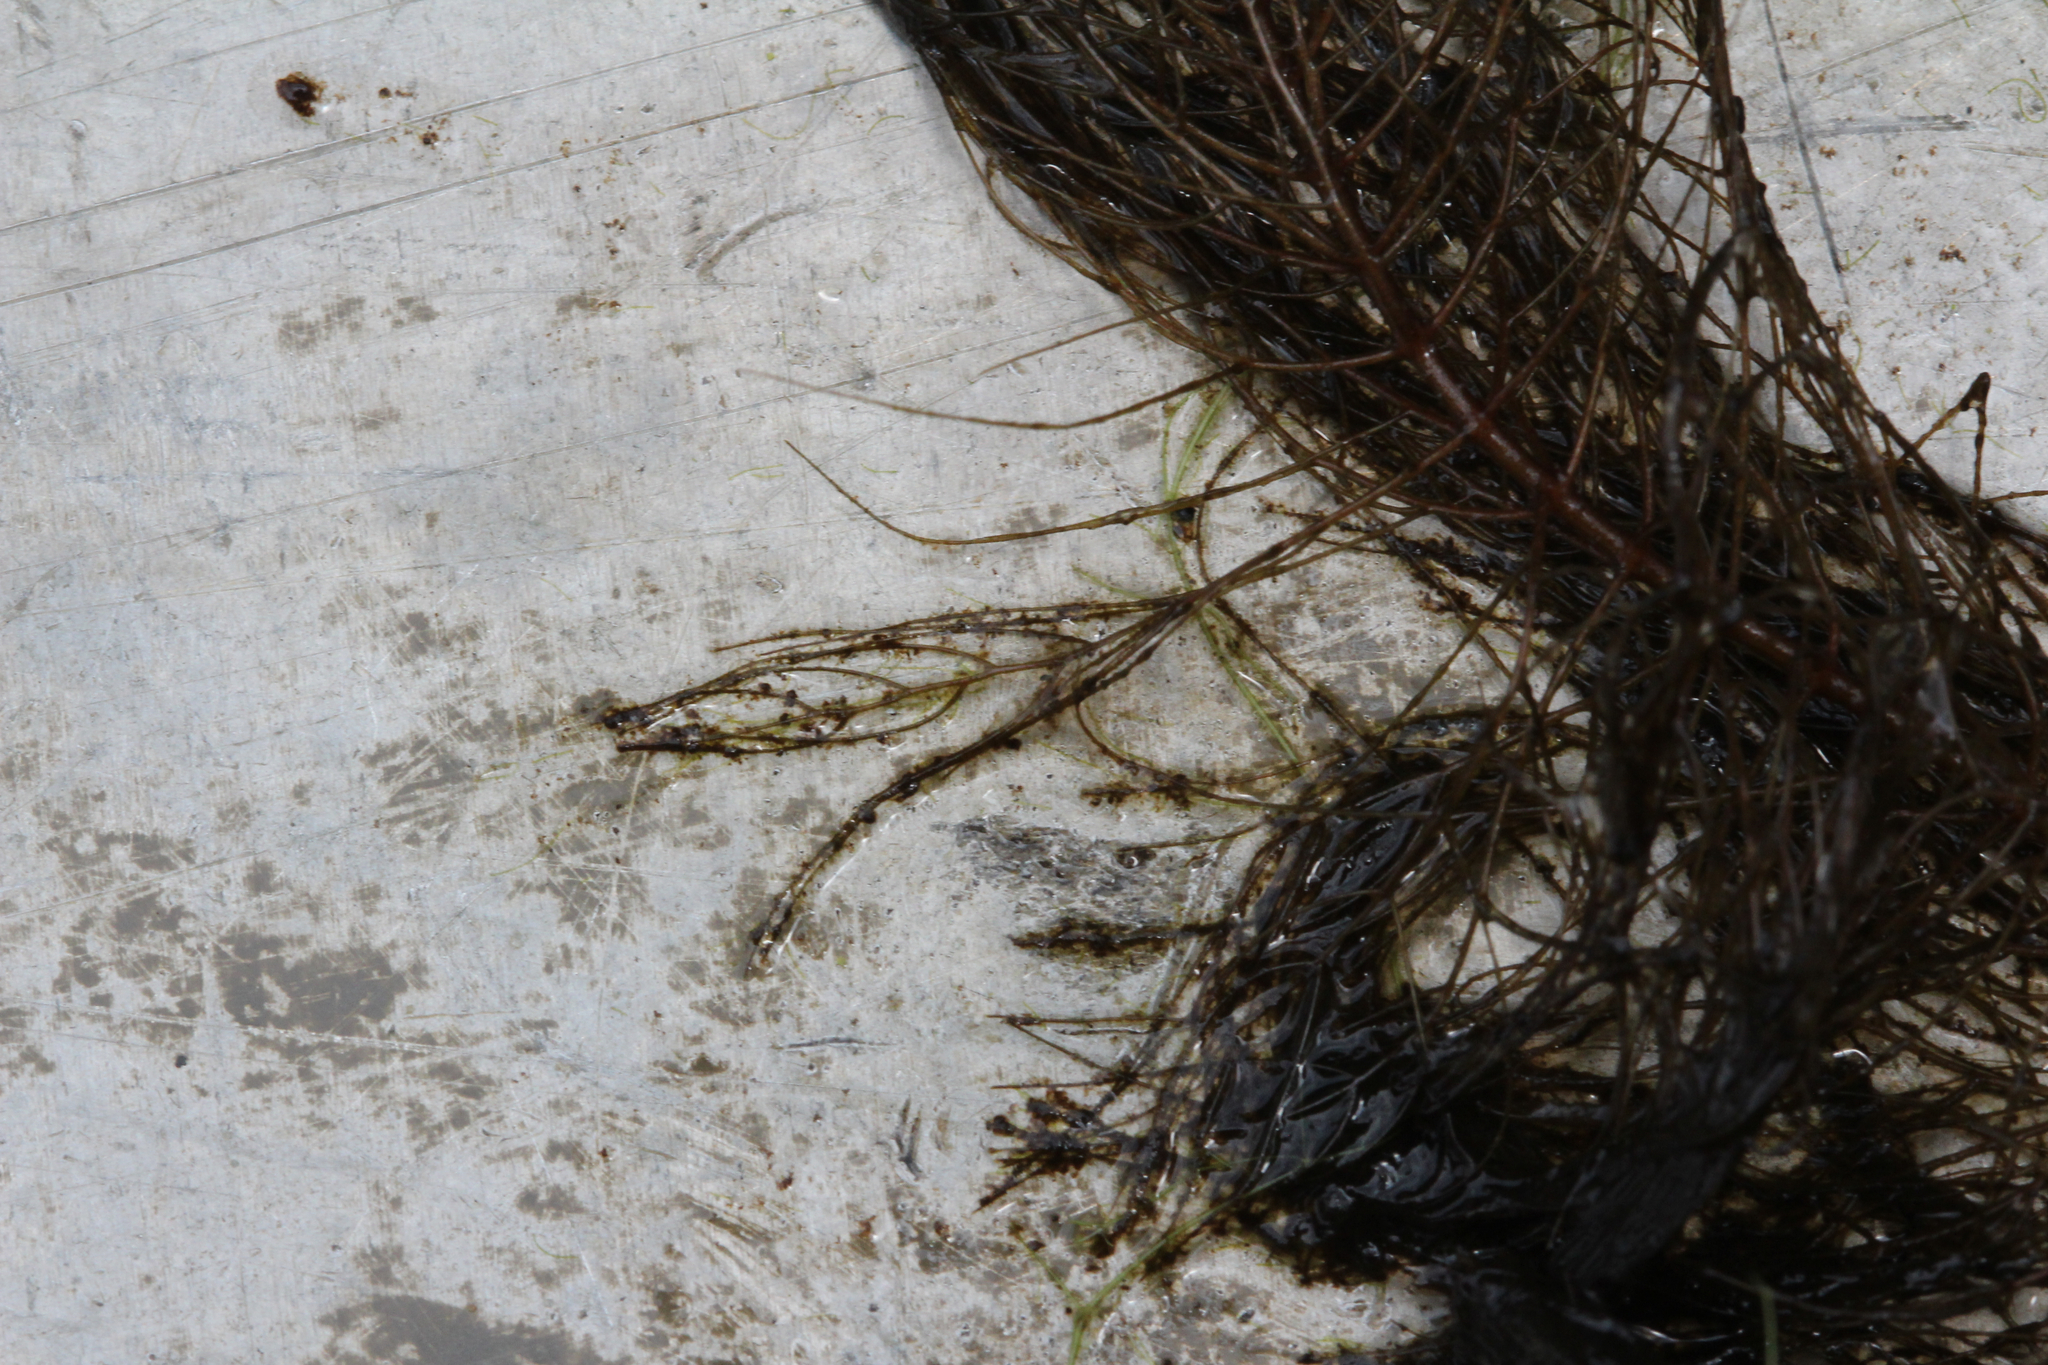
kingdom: Plantae
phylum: Tracheophyta
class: Magnoliopsida
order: Saxifragales
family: Haloragaceae
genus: Myriophyllum
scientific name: Myriophyllum heterophyllum
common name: Variable watermilfoil
